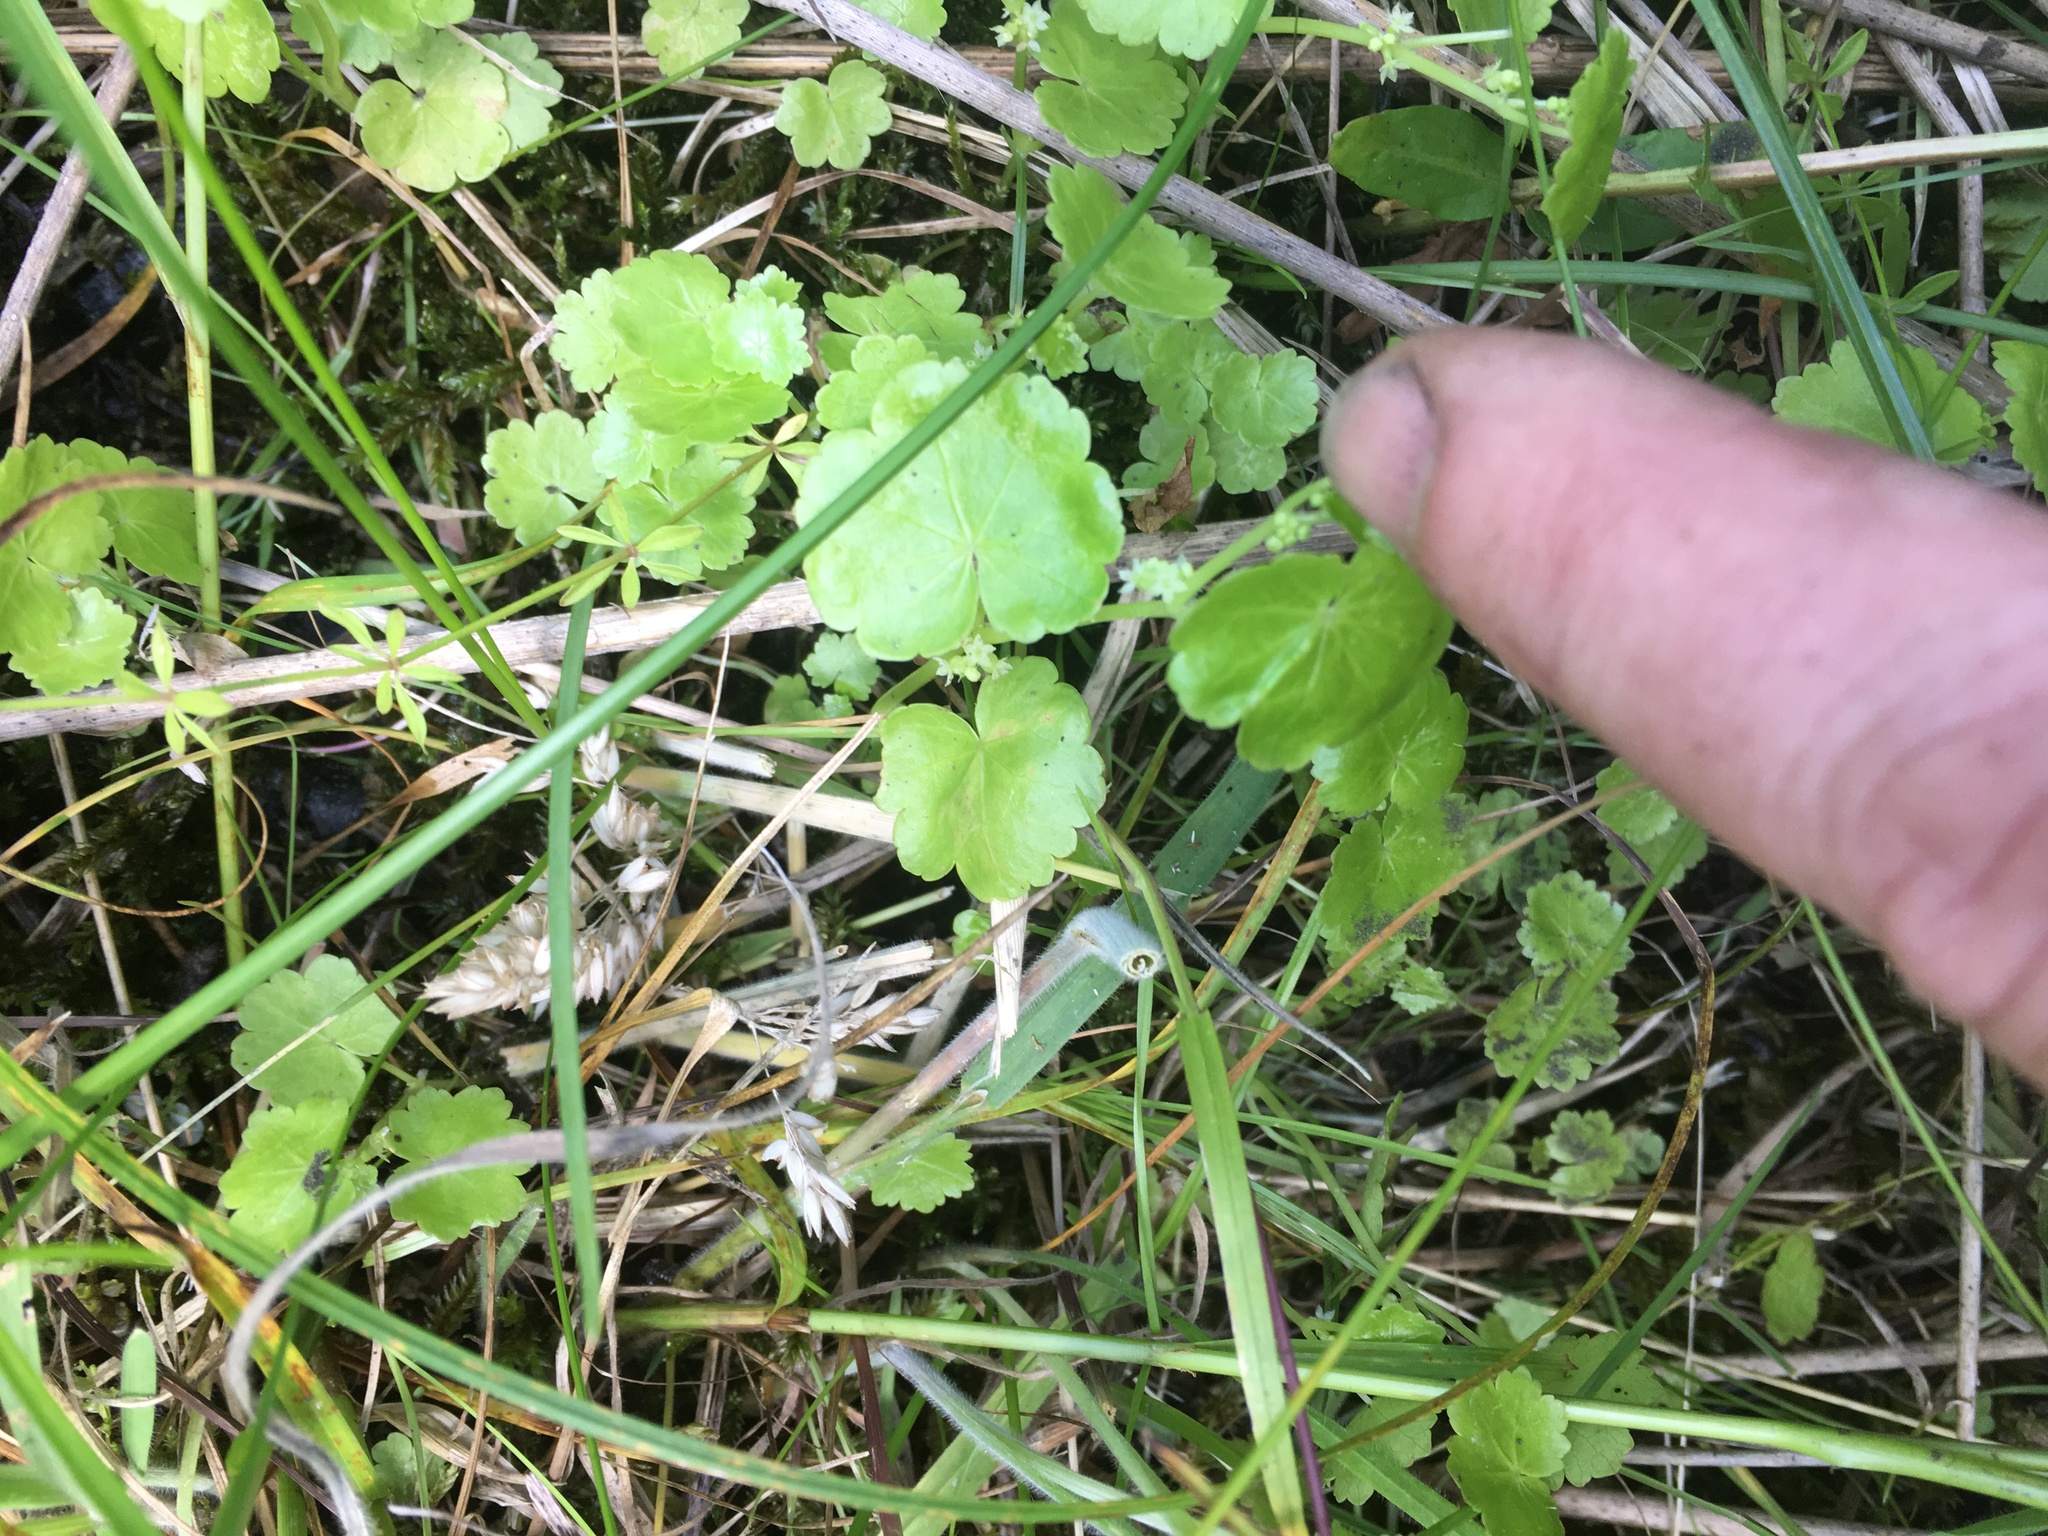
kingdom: Plantae
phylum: Tracheophyta
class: Magnoliopsida
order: Apiales
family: Araliaceae
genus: Hydrocotyle
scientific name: Hydrocotyle americana
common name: American water-pennywort
